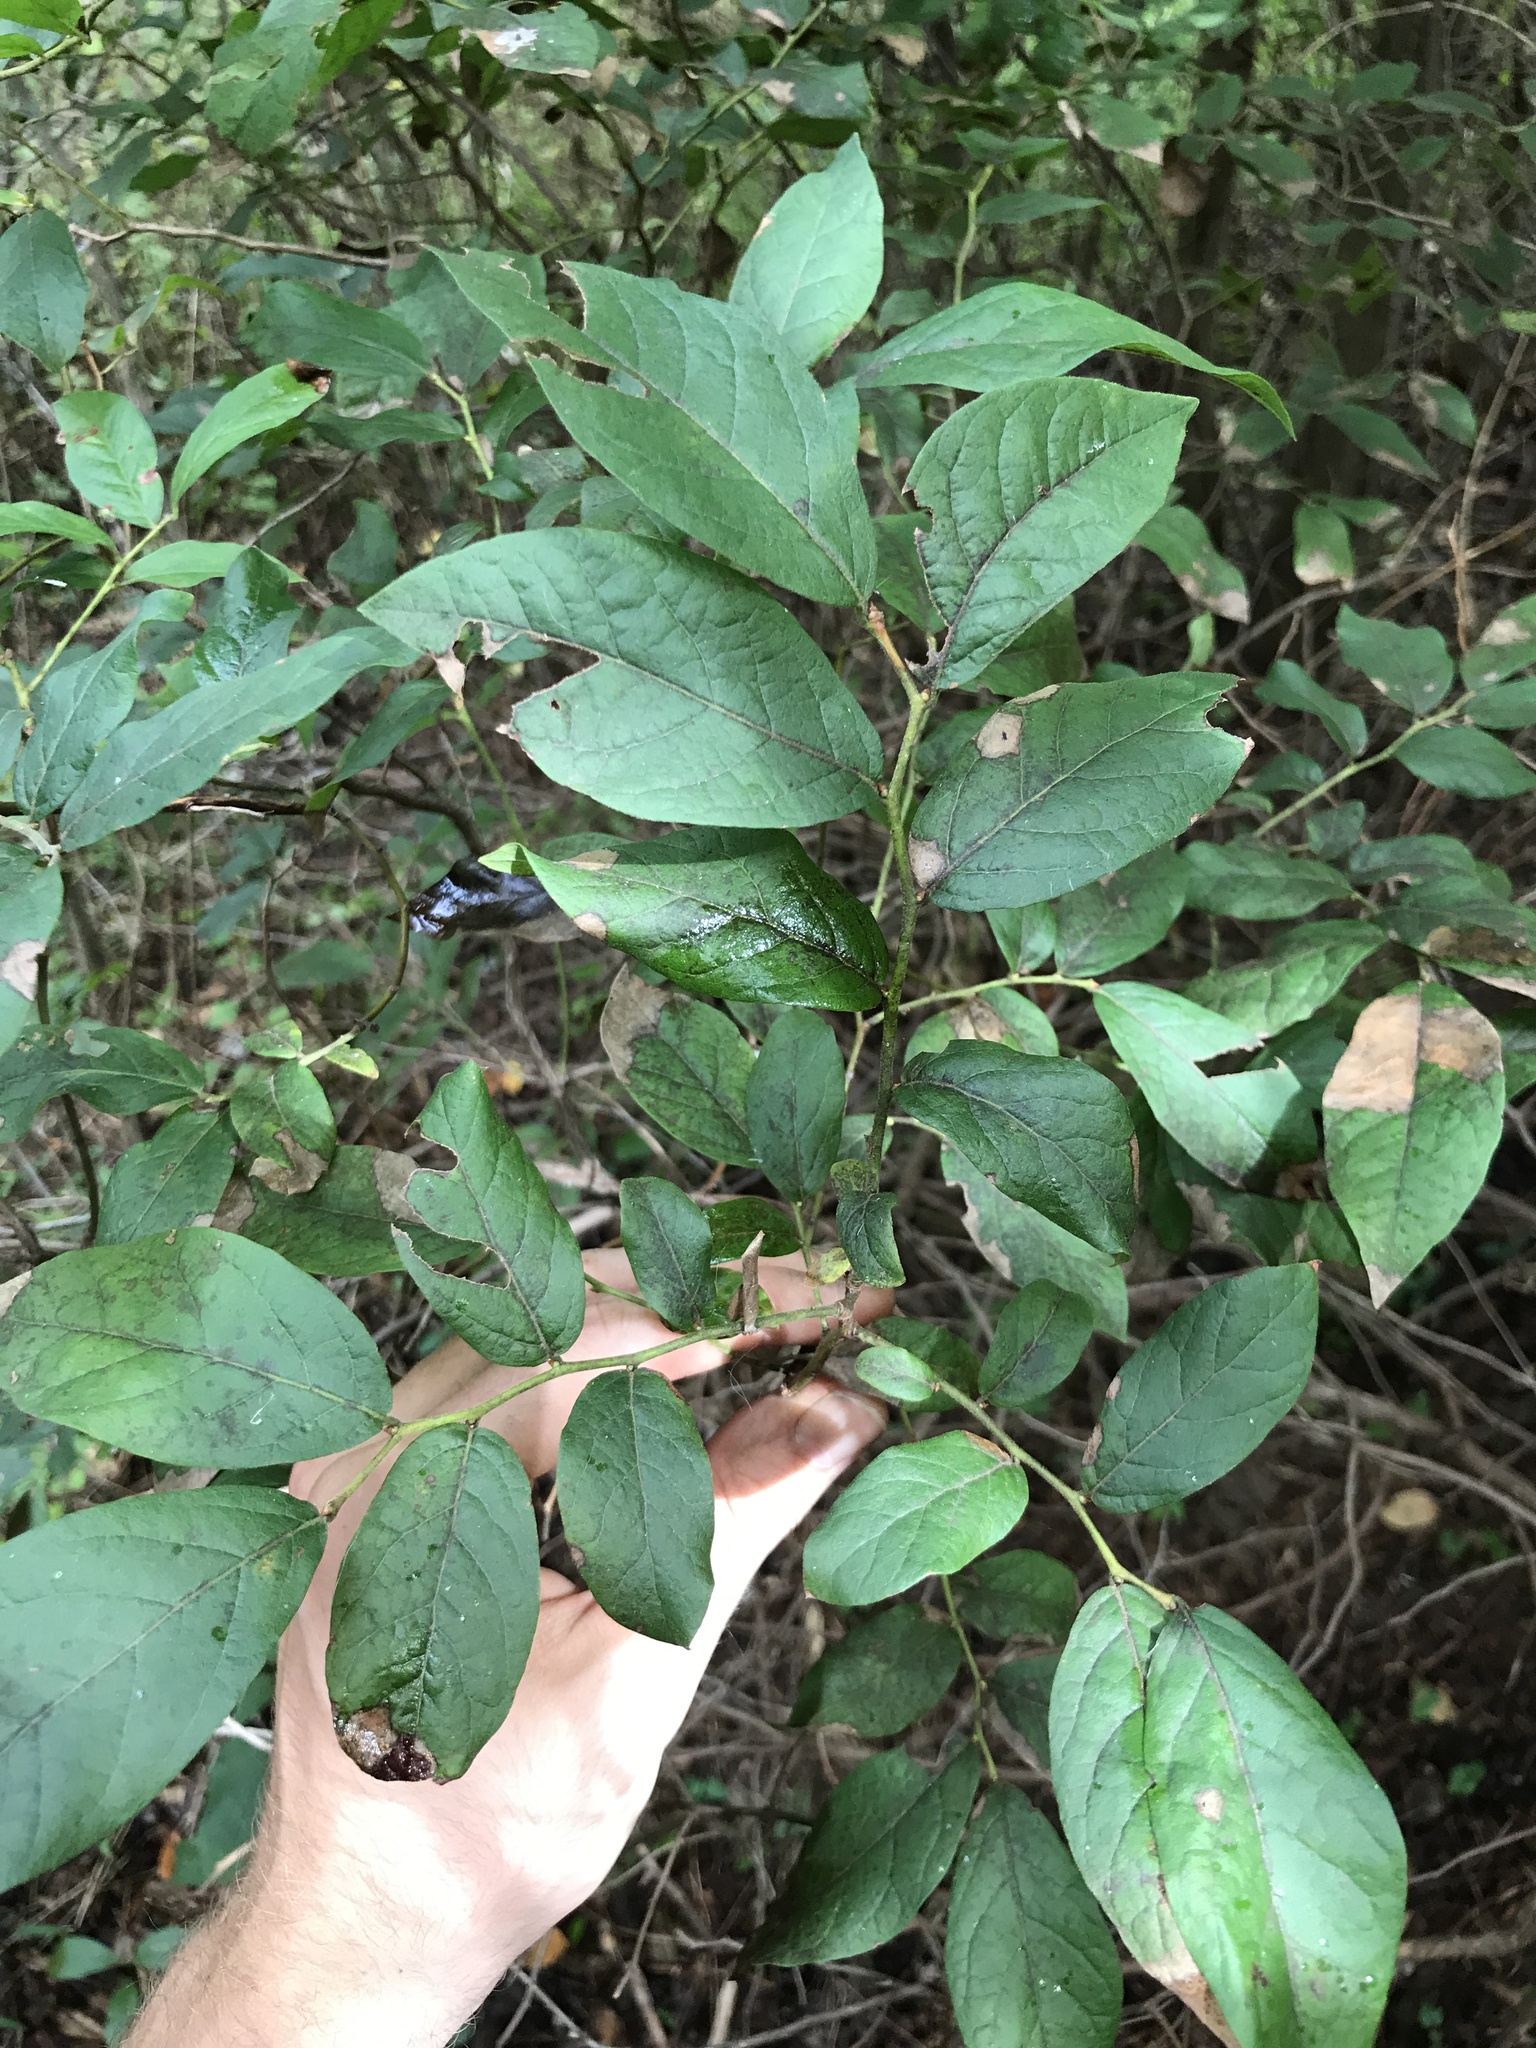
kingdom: Plantae
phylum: Tracheophyta
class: Magnoliopsida
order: Ericales
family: Ericaceae
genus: Vaccinium
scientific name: Vaccinium stamineum
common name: Deerberry
